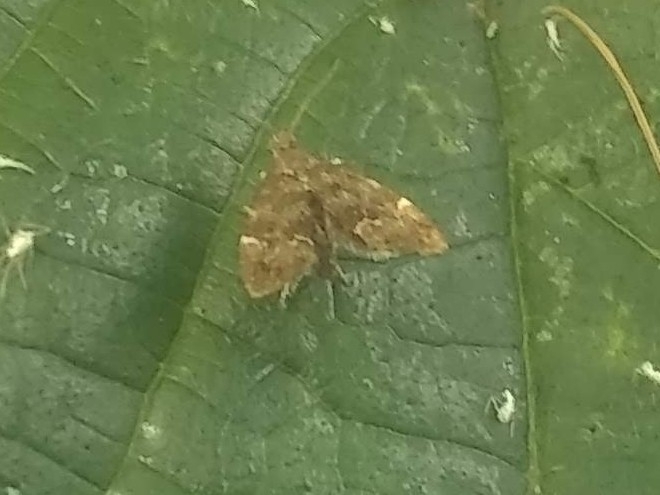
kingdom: Animalia
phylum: Arthropoda
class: Insecta
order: Lepidoptera
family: Choreutidae
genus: Anthophila
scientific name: Anthophila fabriciana
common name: Nettle-tap
